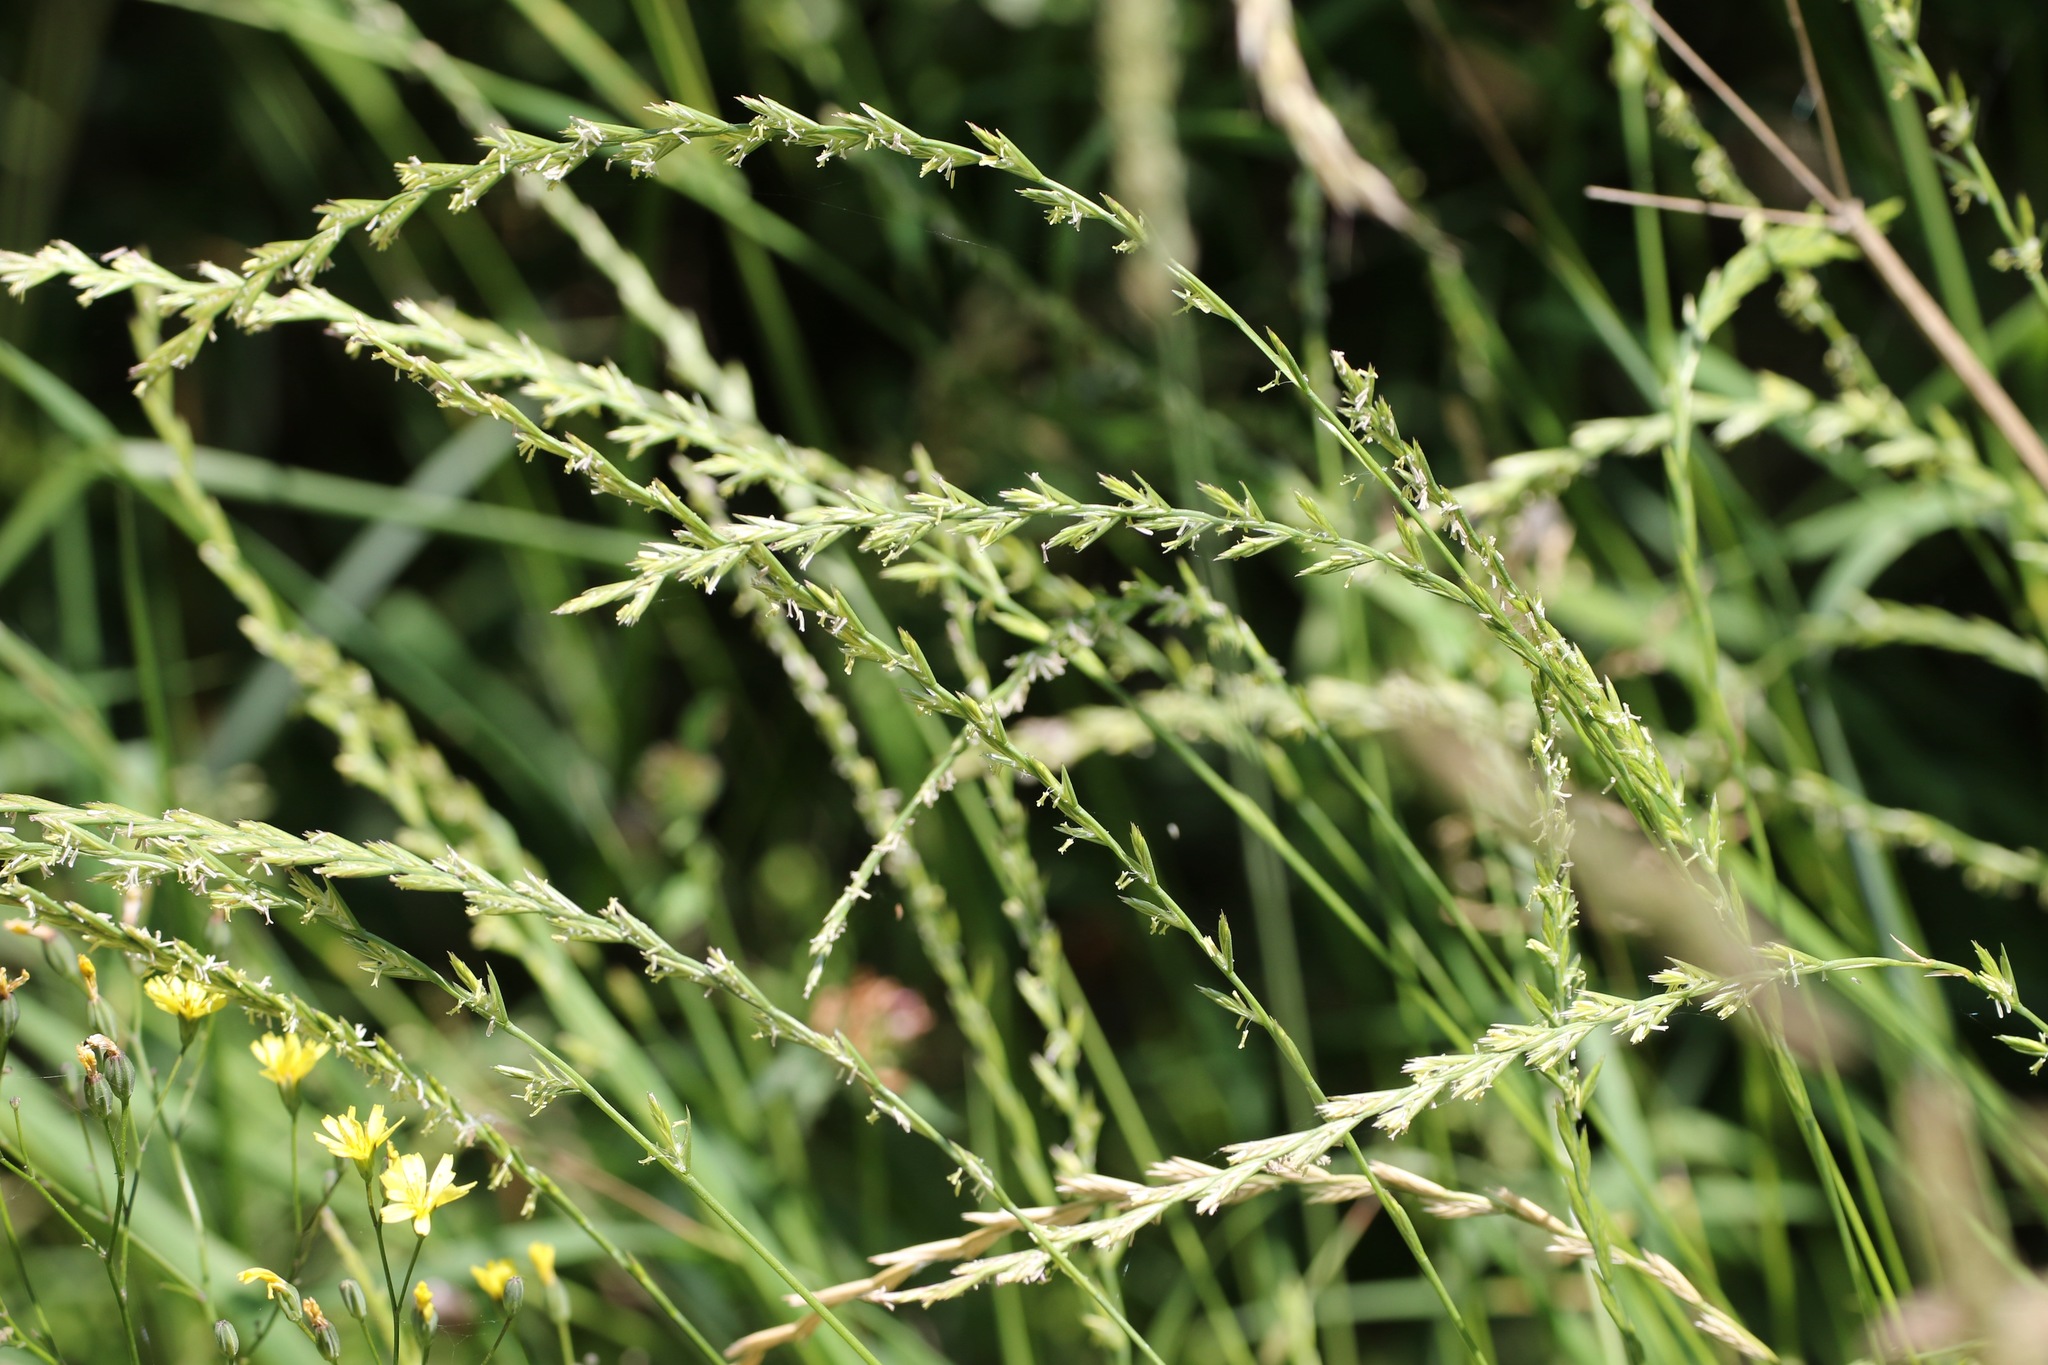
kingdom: Plantae
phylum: Tracheophyta
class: Liliopsida
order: Poales
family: Poaceae
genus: Lolium
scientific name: Lolium perenne
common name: Perennial ryegrass
